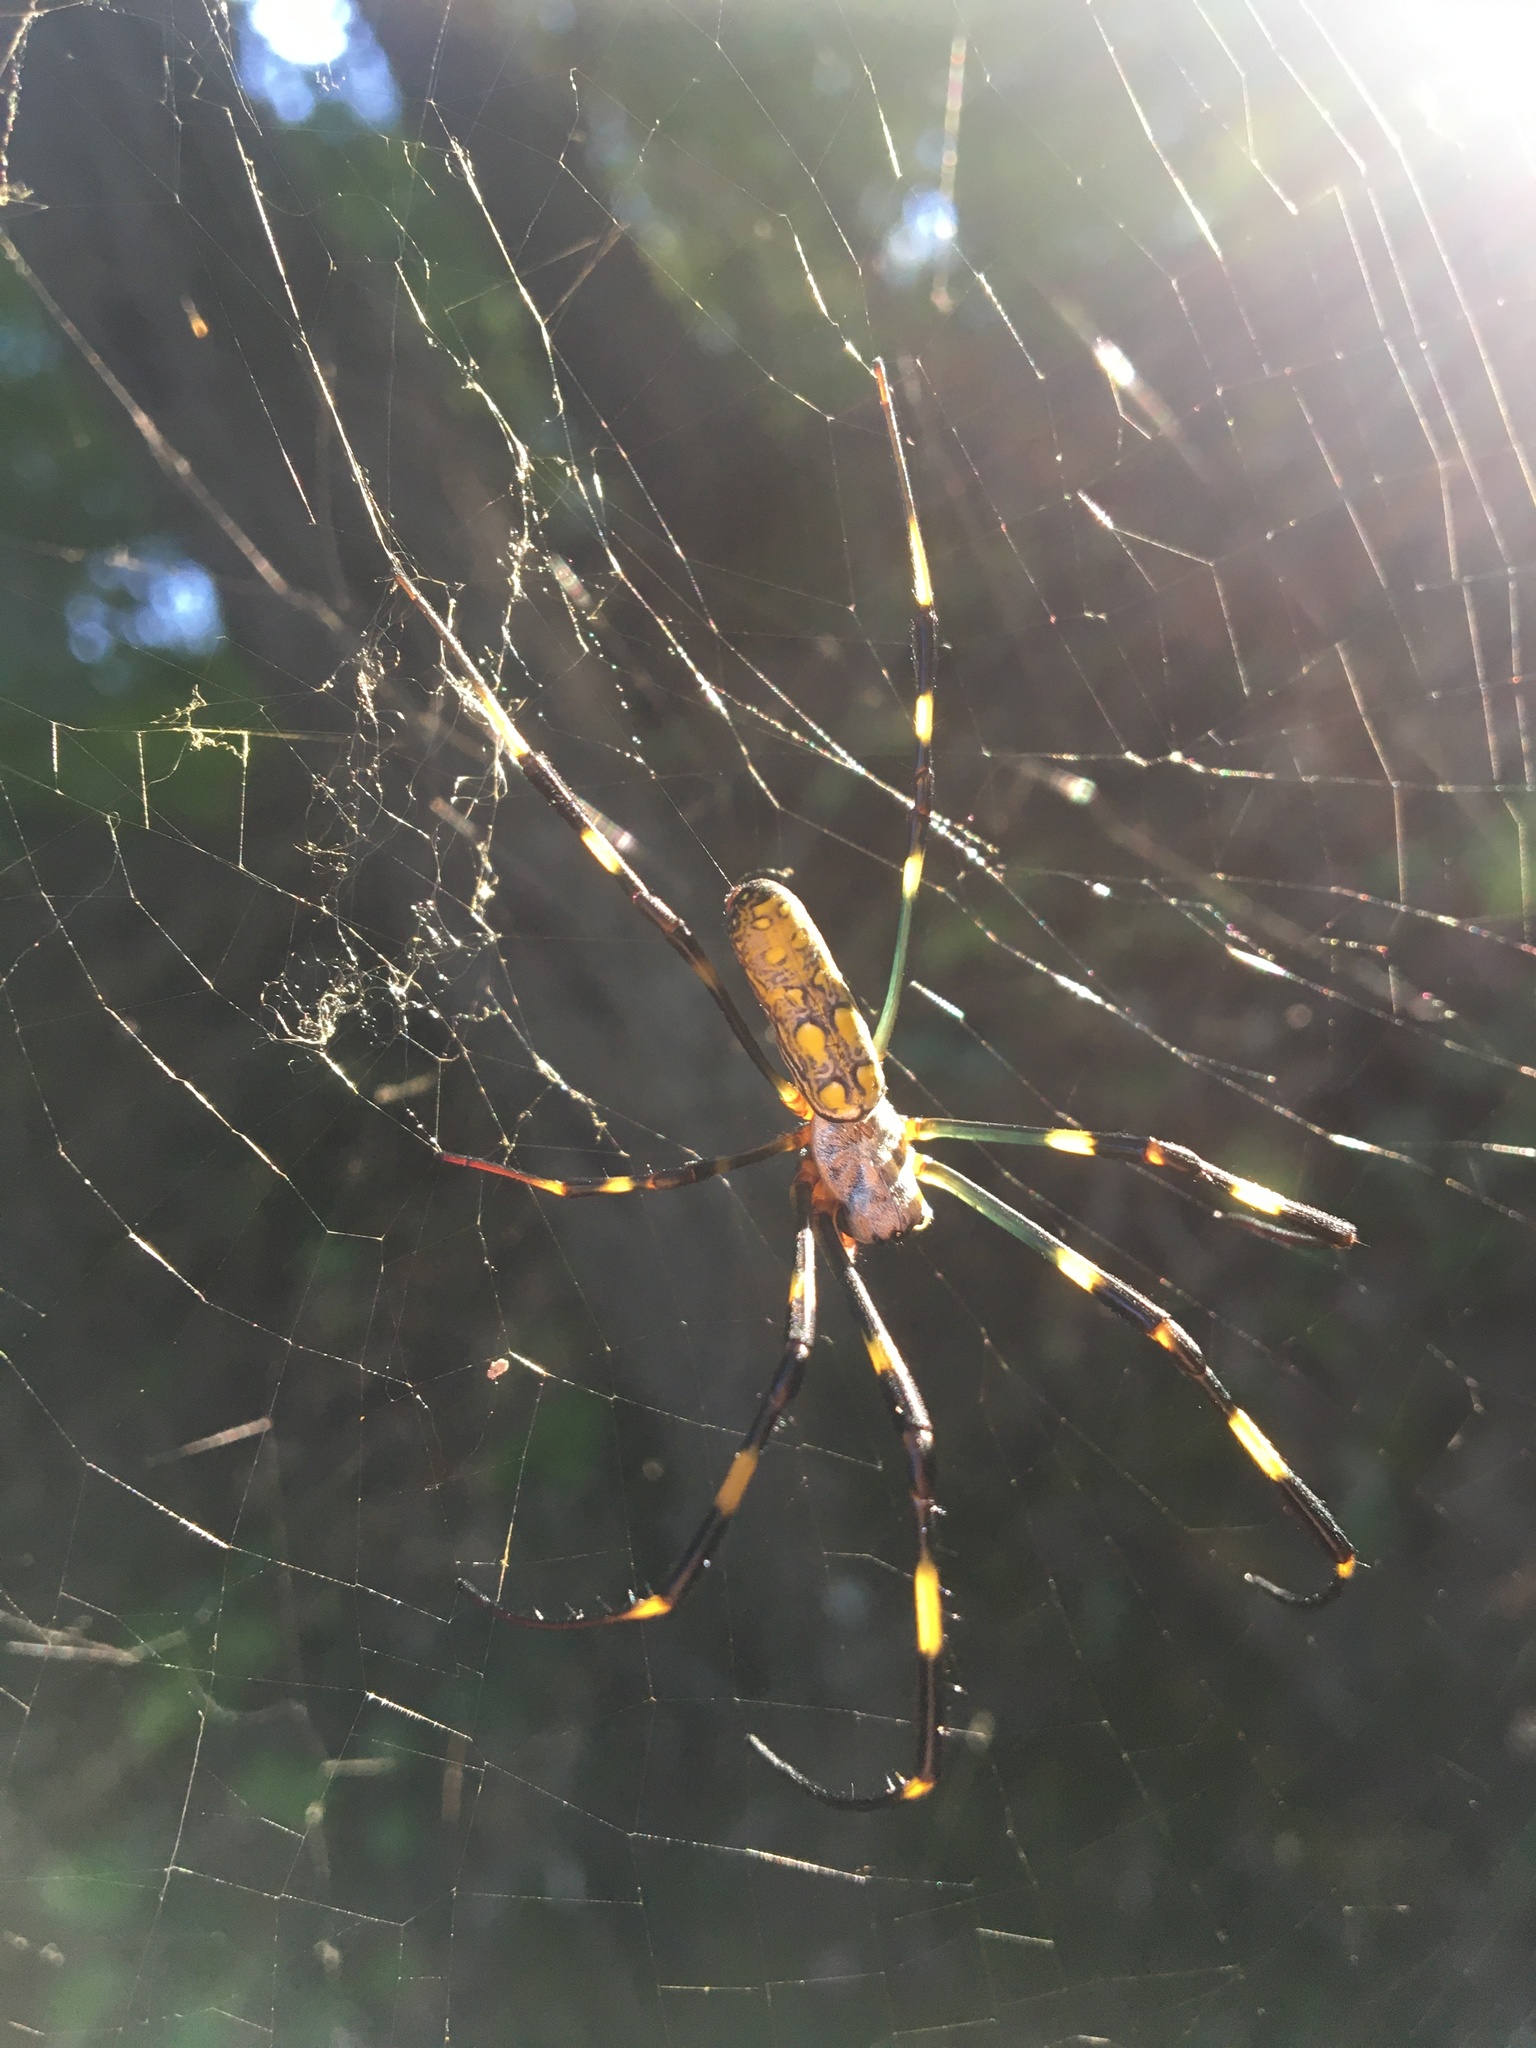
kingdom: Animalia
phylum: Arthropoda
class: Arachnida
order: Araneae
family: Araneidae
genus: Trichonephila
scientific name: Trichonephila clavata
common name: Jorō spider
